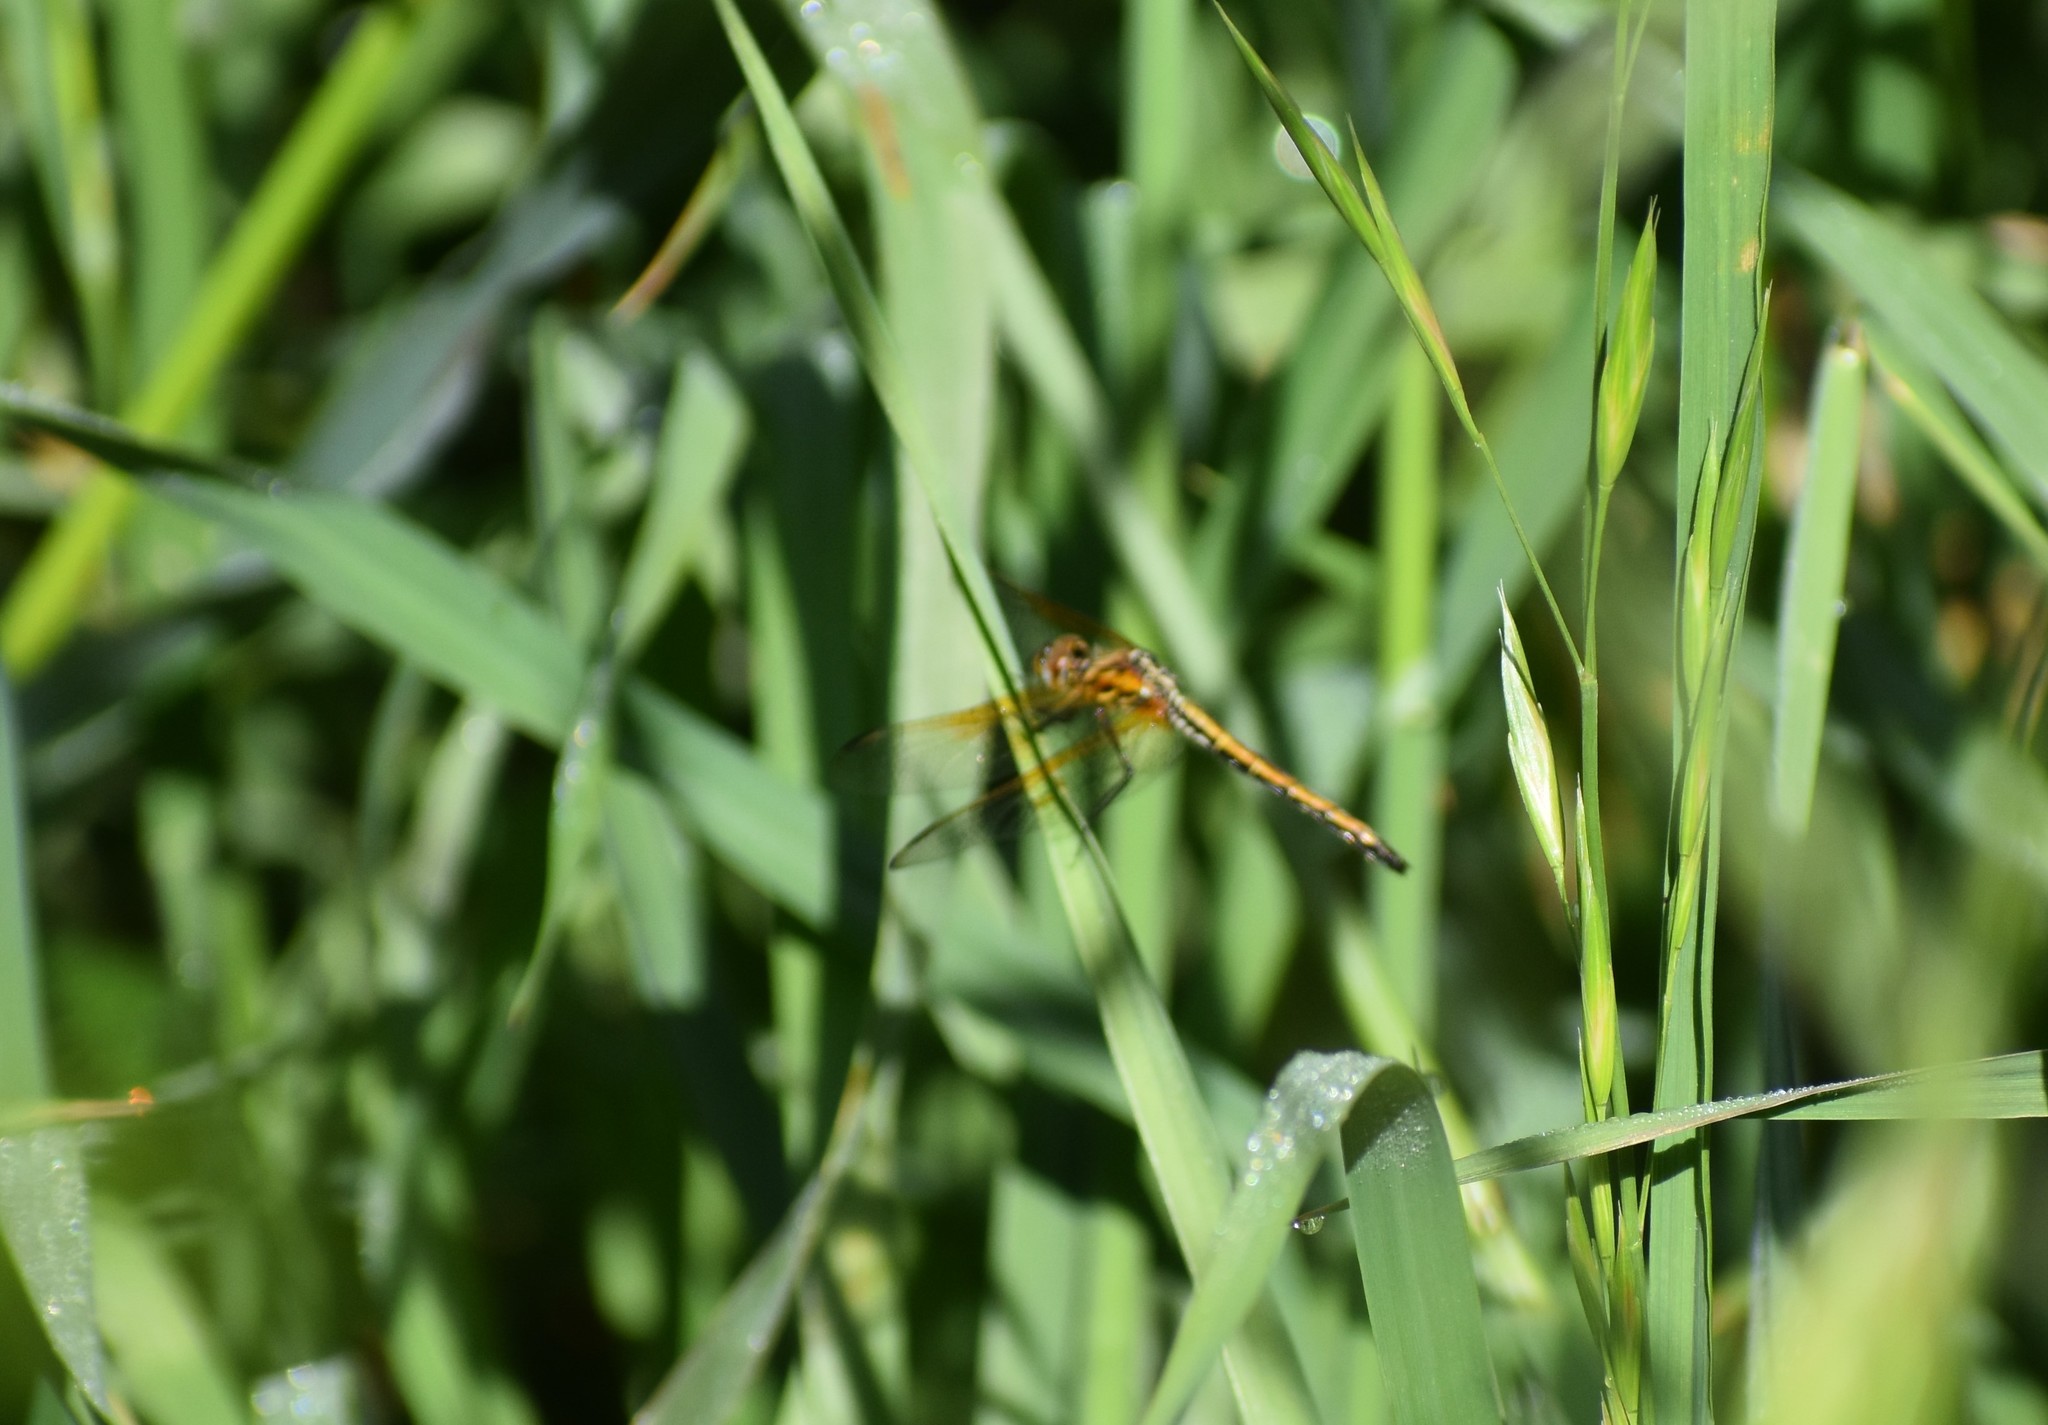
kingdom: Animalia
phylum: Arthropoda
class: Insecta
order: Odonata
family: Libellulidae
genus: Trithemis
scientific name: Trithemis arteriosa
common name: Red-veined dropwing
